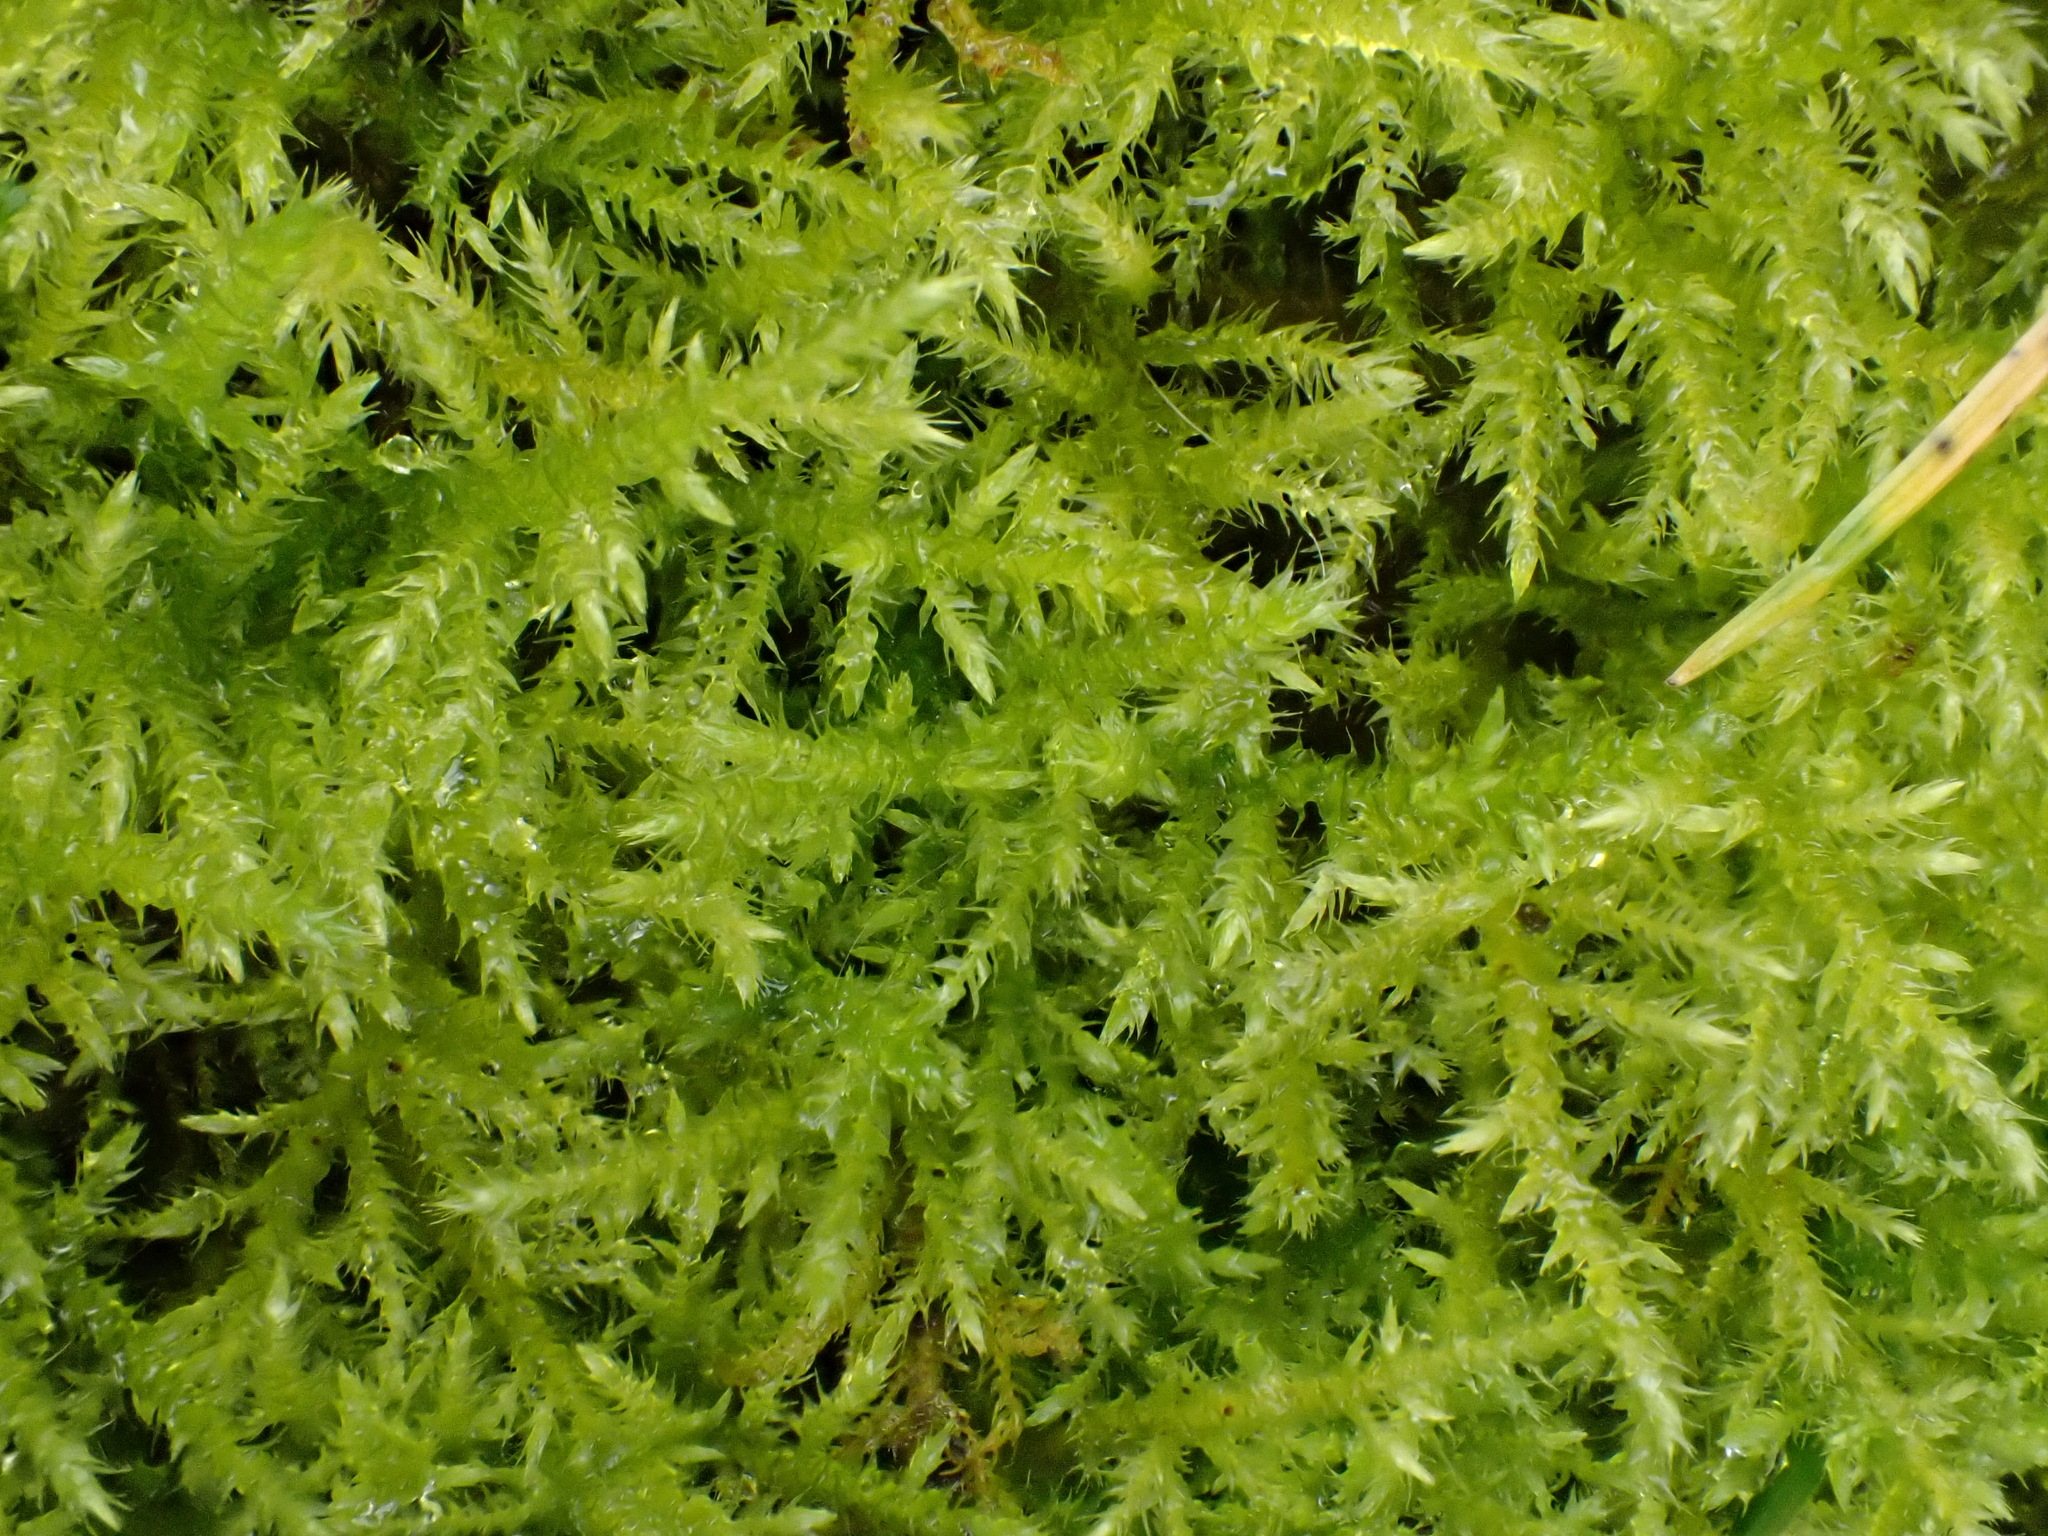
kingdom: Plantae
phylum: Bryophyta
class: Bryopsida
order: Hypnales
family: Amblystegiaceae
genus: Cratoneuron
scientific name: Cratoneuron filicinum
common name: Fern-leaved hook moss
